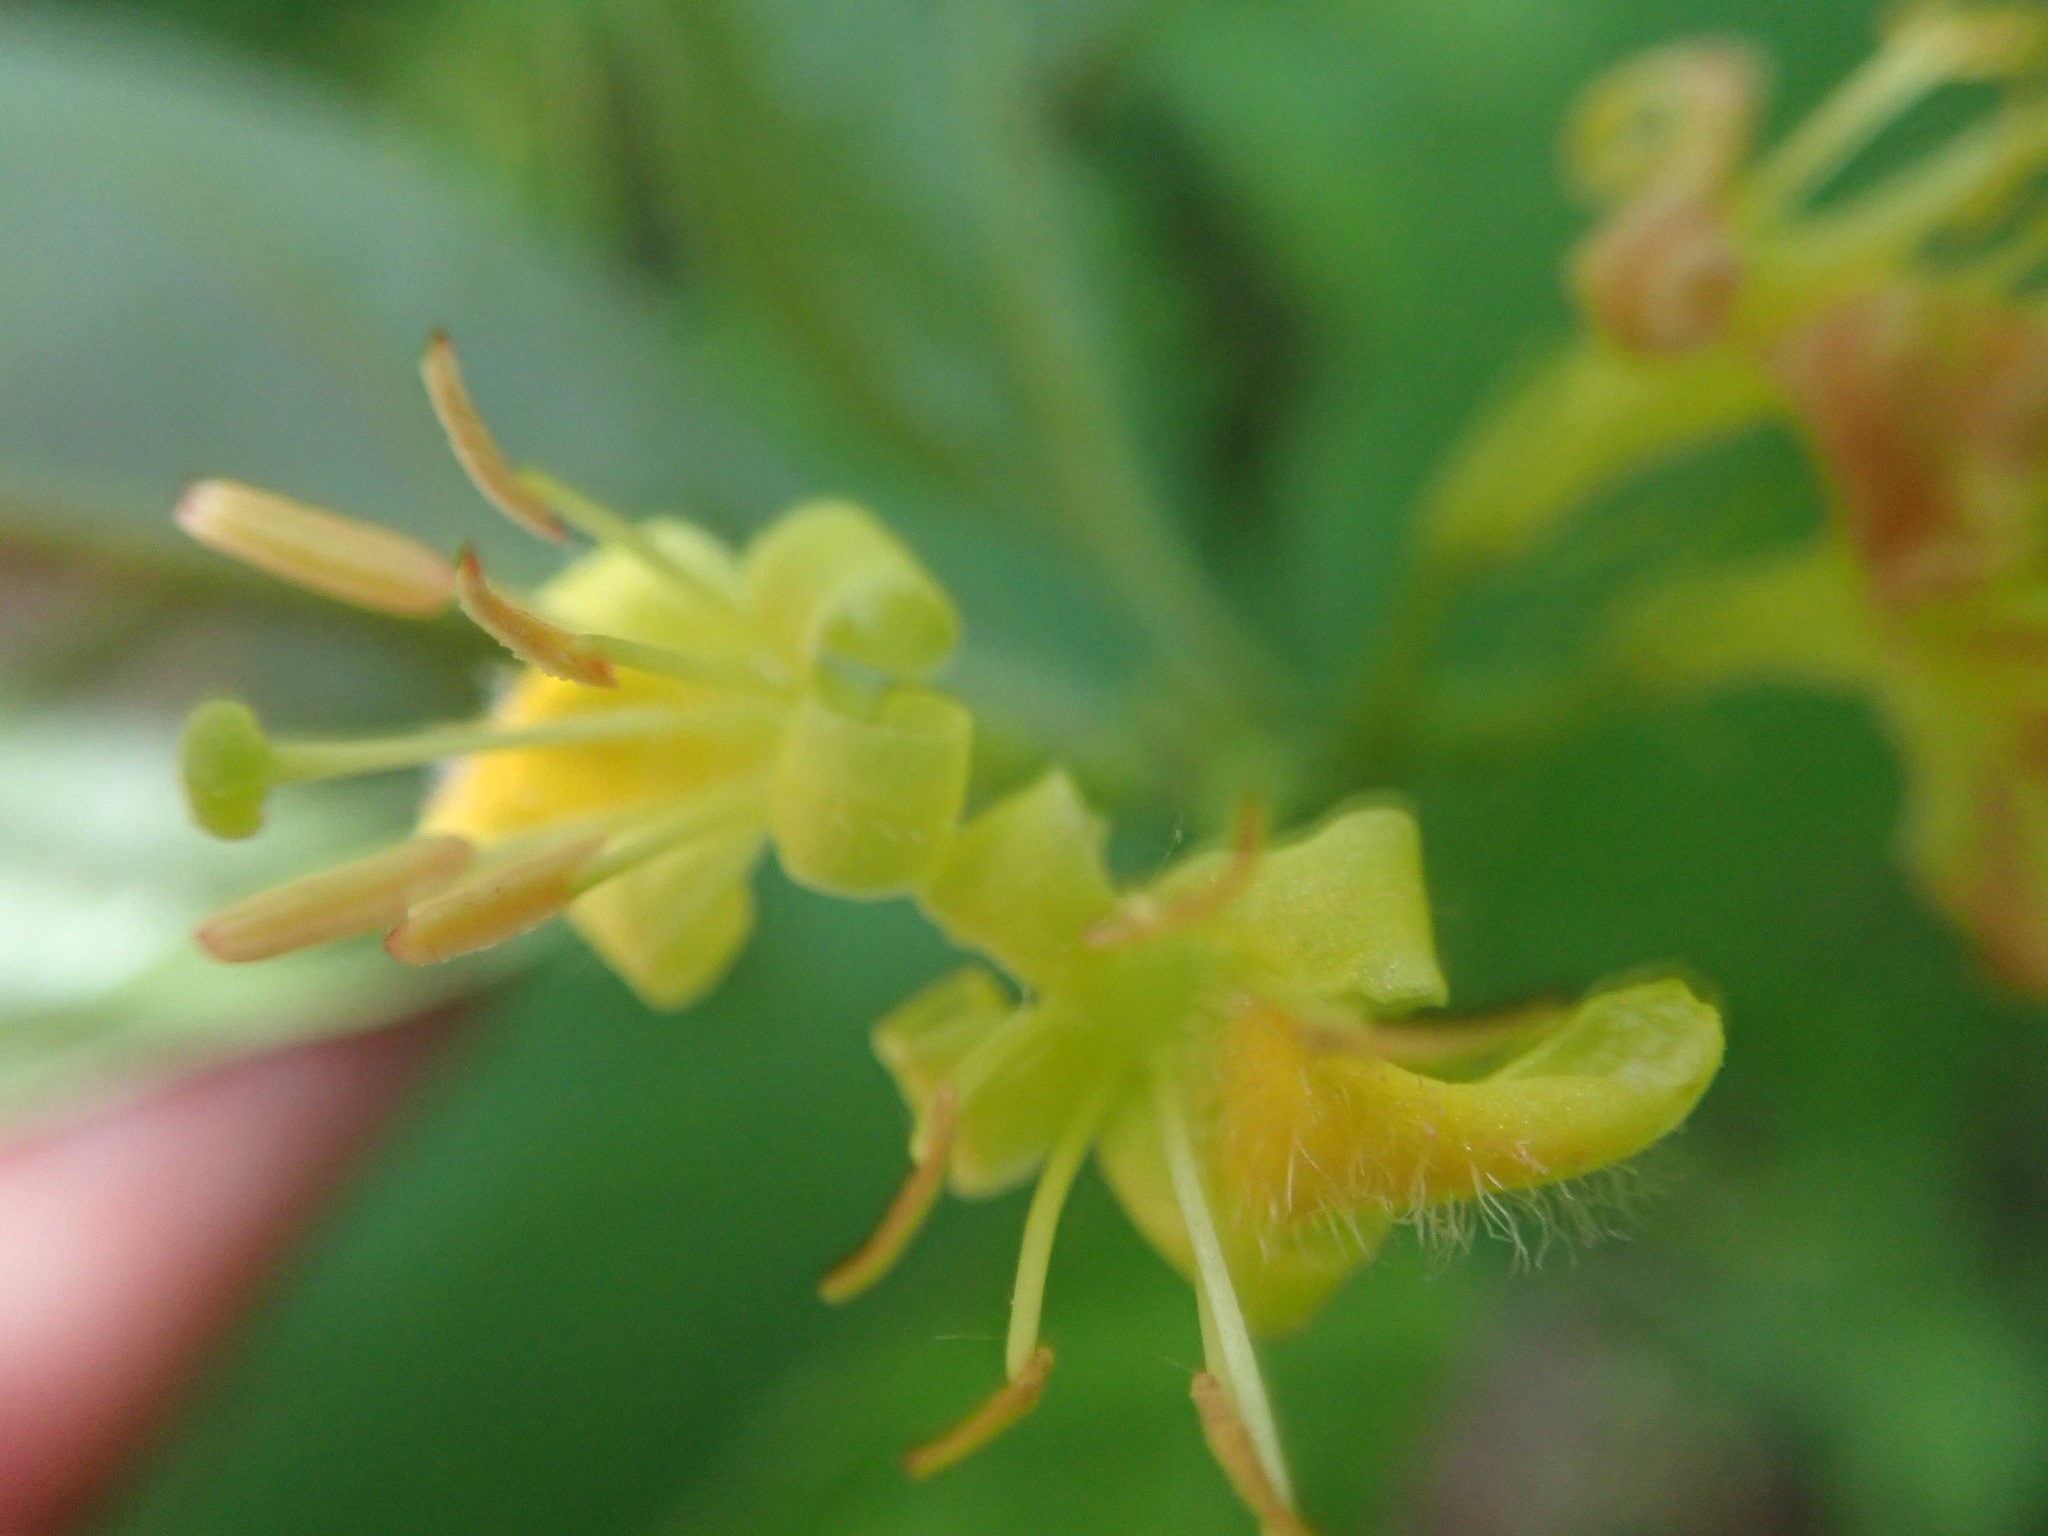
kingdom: Plantae
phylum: Tracheophyta
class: Magnoliopsida
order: Dipsacales
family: Caprifoliaceae
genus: Diervilla
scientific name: Diervilla lonicera
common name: Bush-honeysuckle
